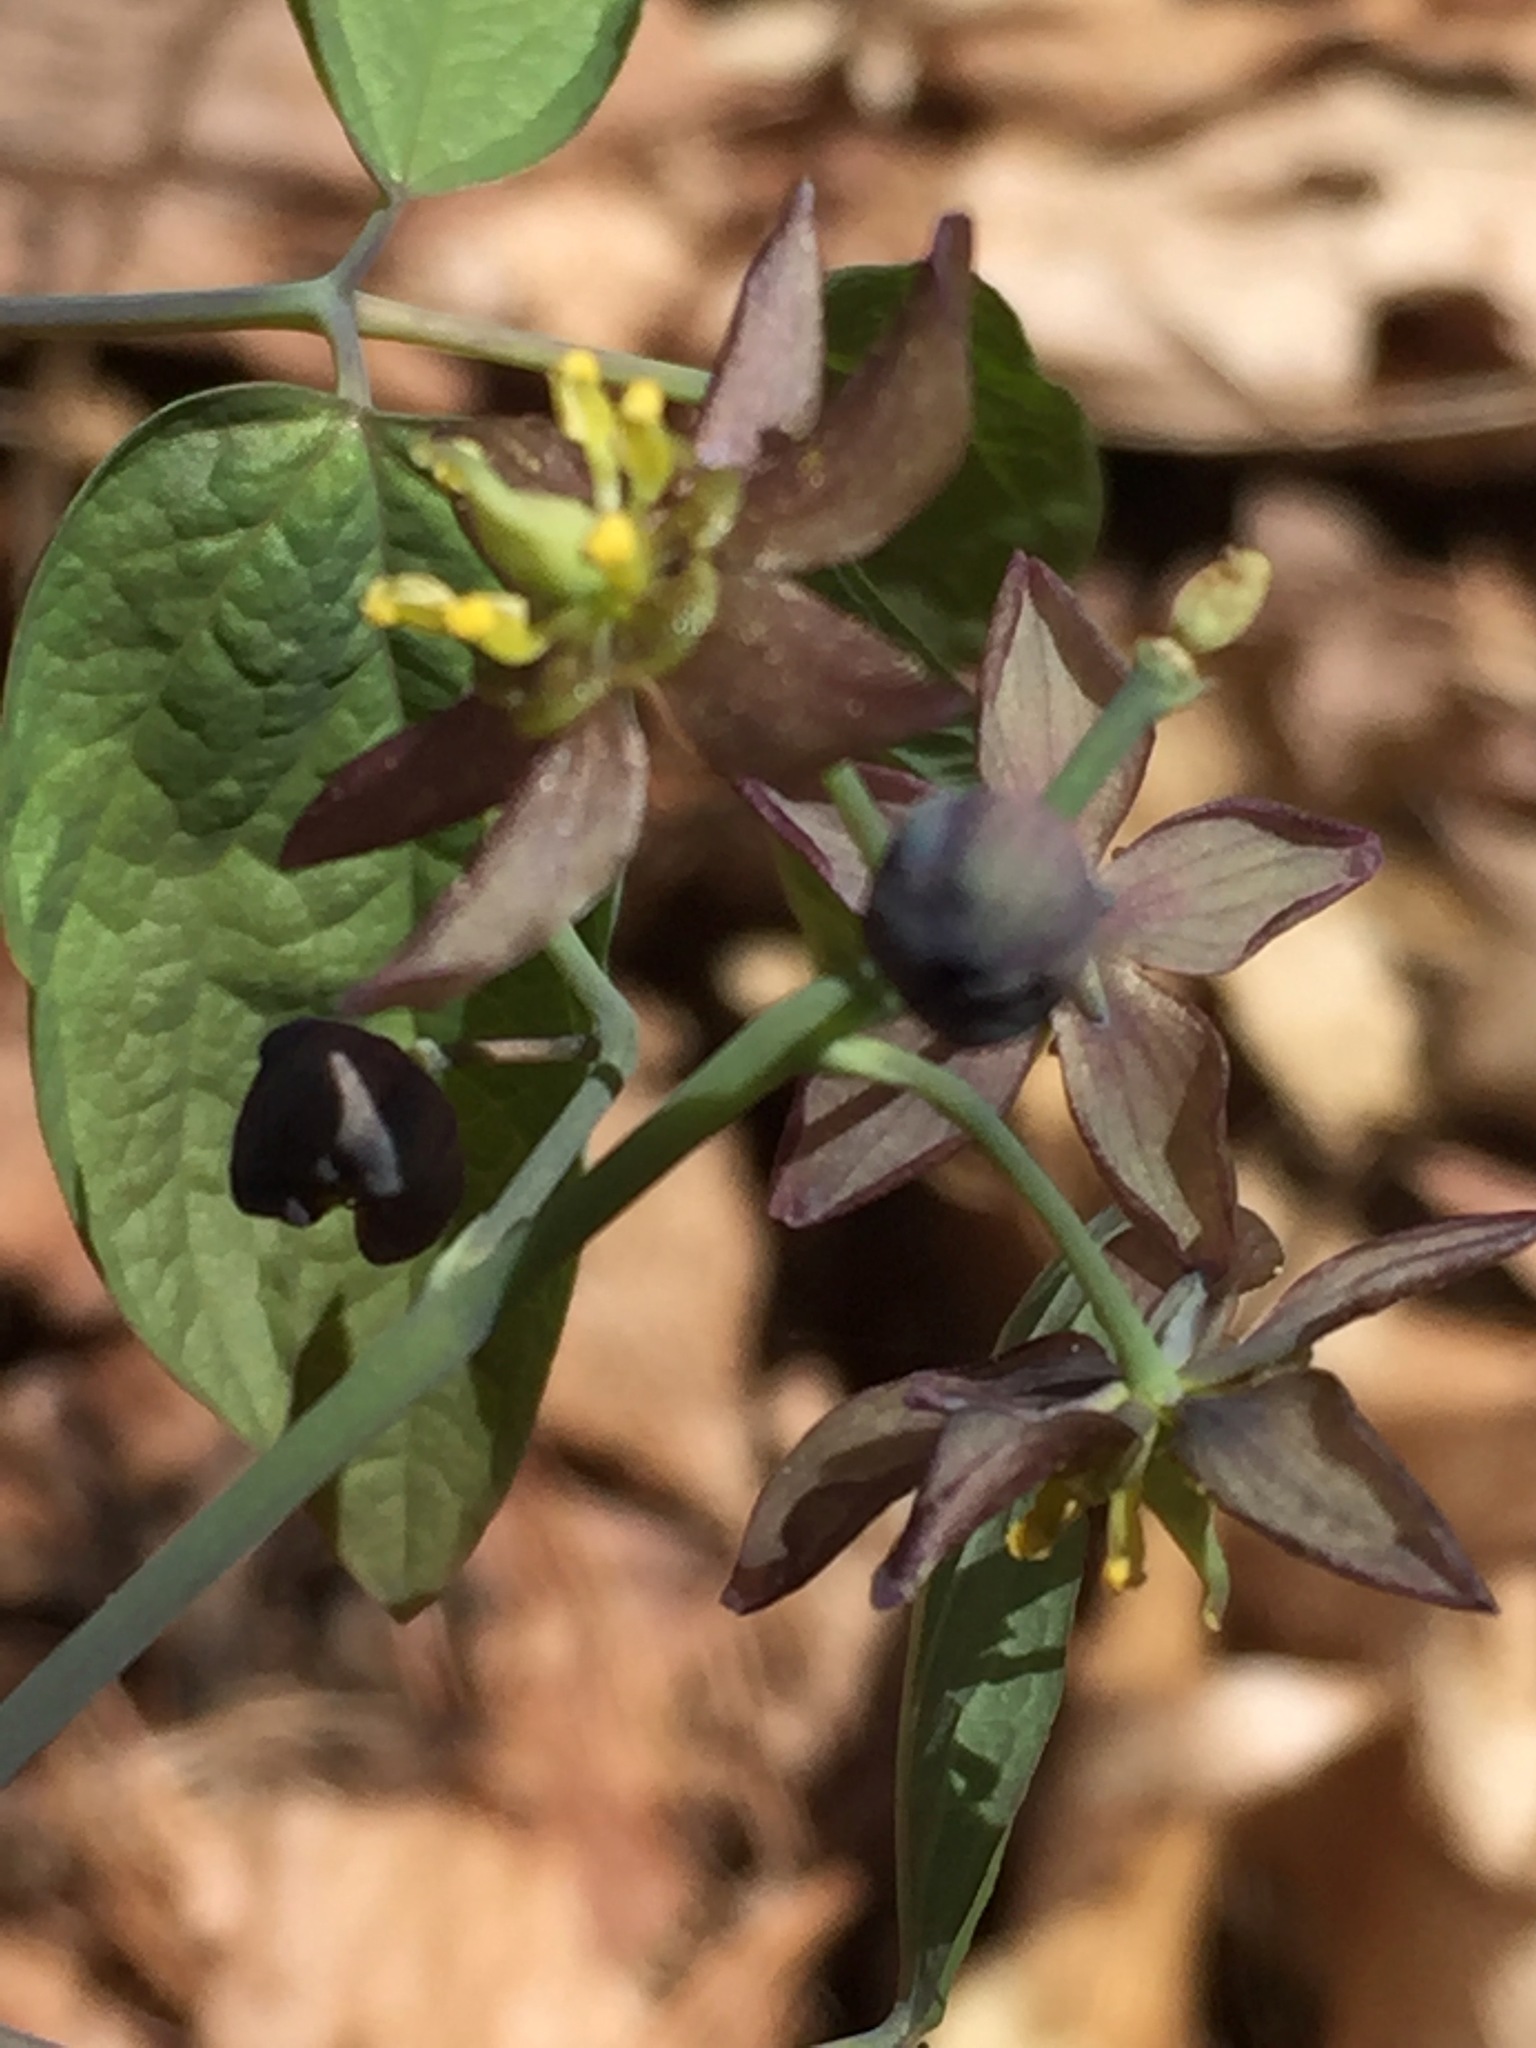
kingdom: Plantae
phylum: Tracheophyta
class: Magnoliopsida
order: Ranunculales
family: Berberidaceae
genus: Caulophyllum
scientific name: Caulophyllum giganteum
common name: Blue cohosh
